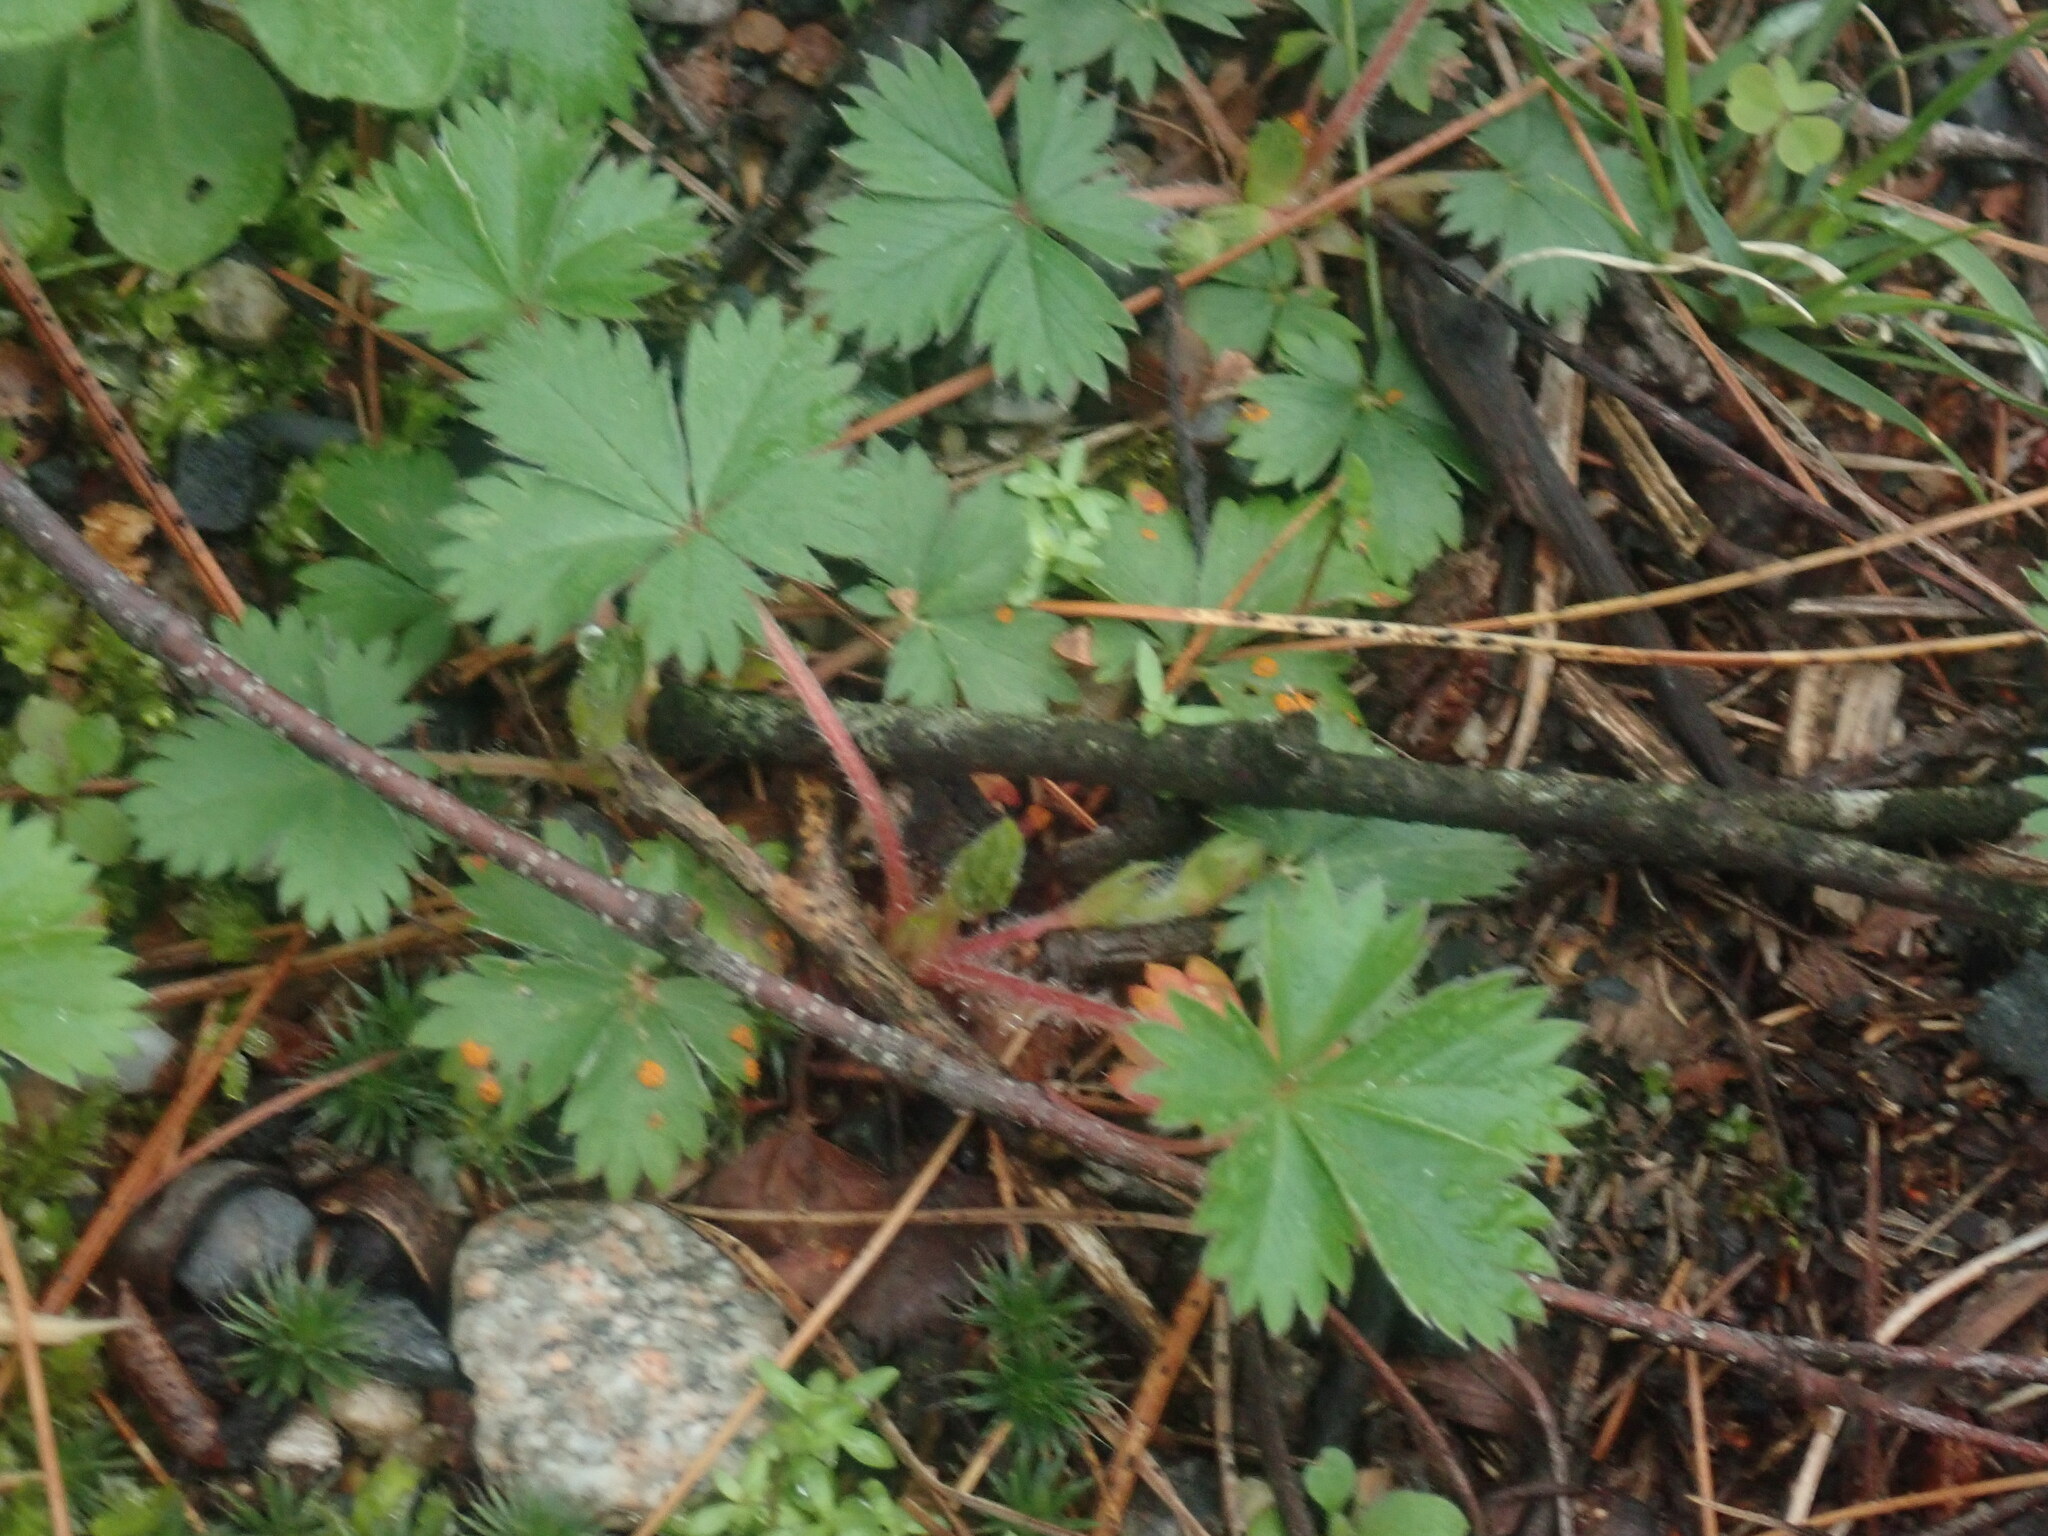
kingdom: Plantae
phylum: Tracheophyta
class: Magnoliopsida
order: Rosales
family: Rosaceae
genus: Potentilla
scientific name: Potentilla canadensis
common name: Canada cinquefoil
